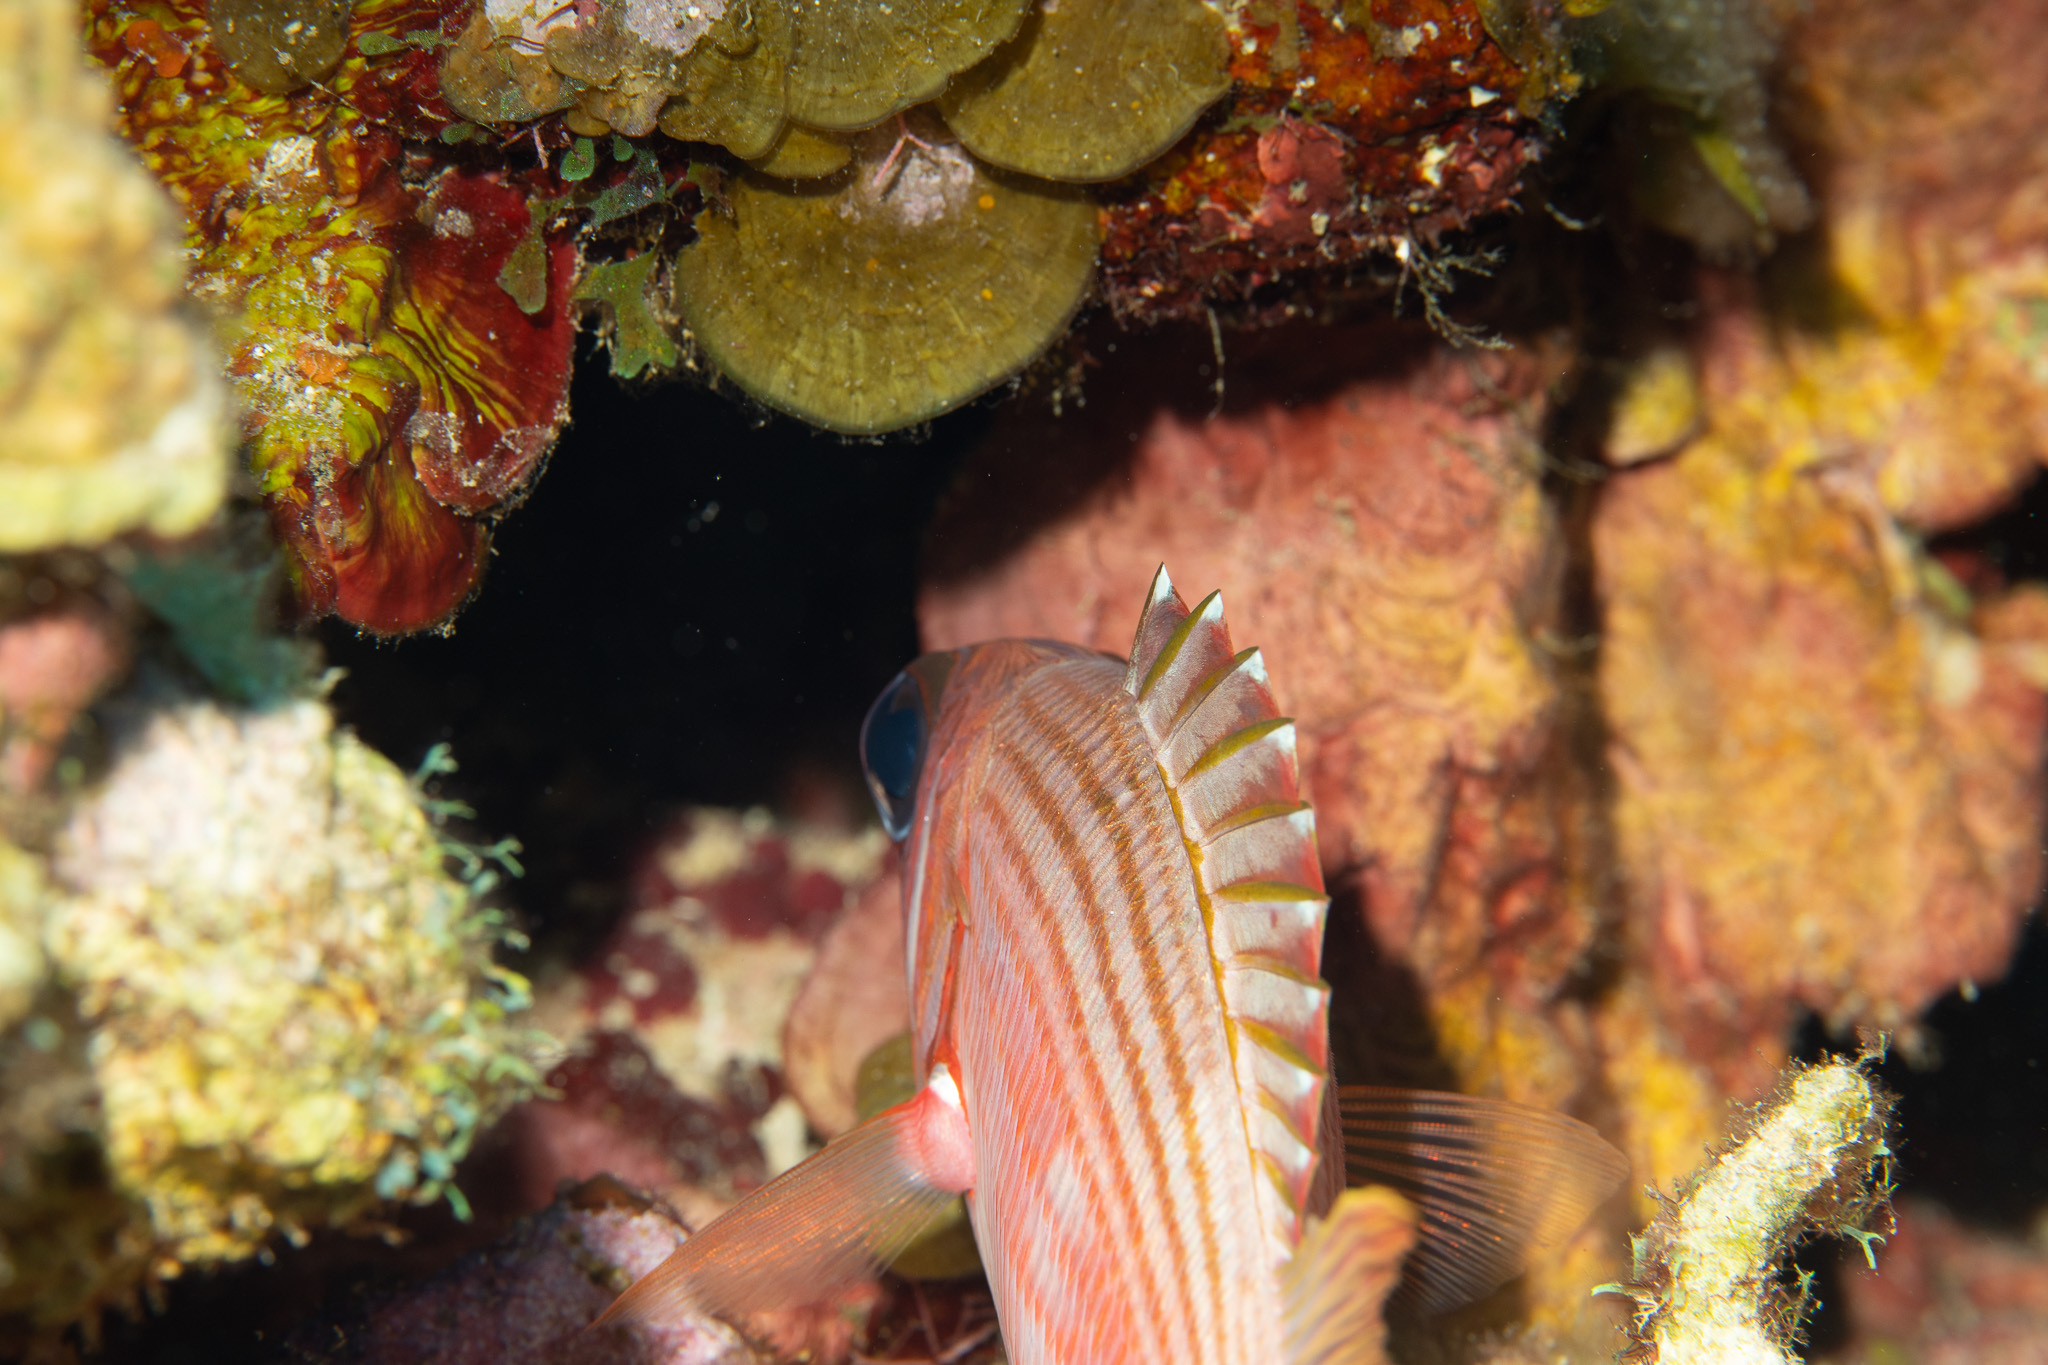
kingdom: Animalia
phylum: Chordata
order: Beryciformes
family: Holocentridae
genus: Holocentrus
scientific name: Holocentrus rufus
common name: Longspine squirrelfish
